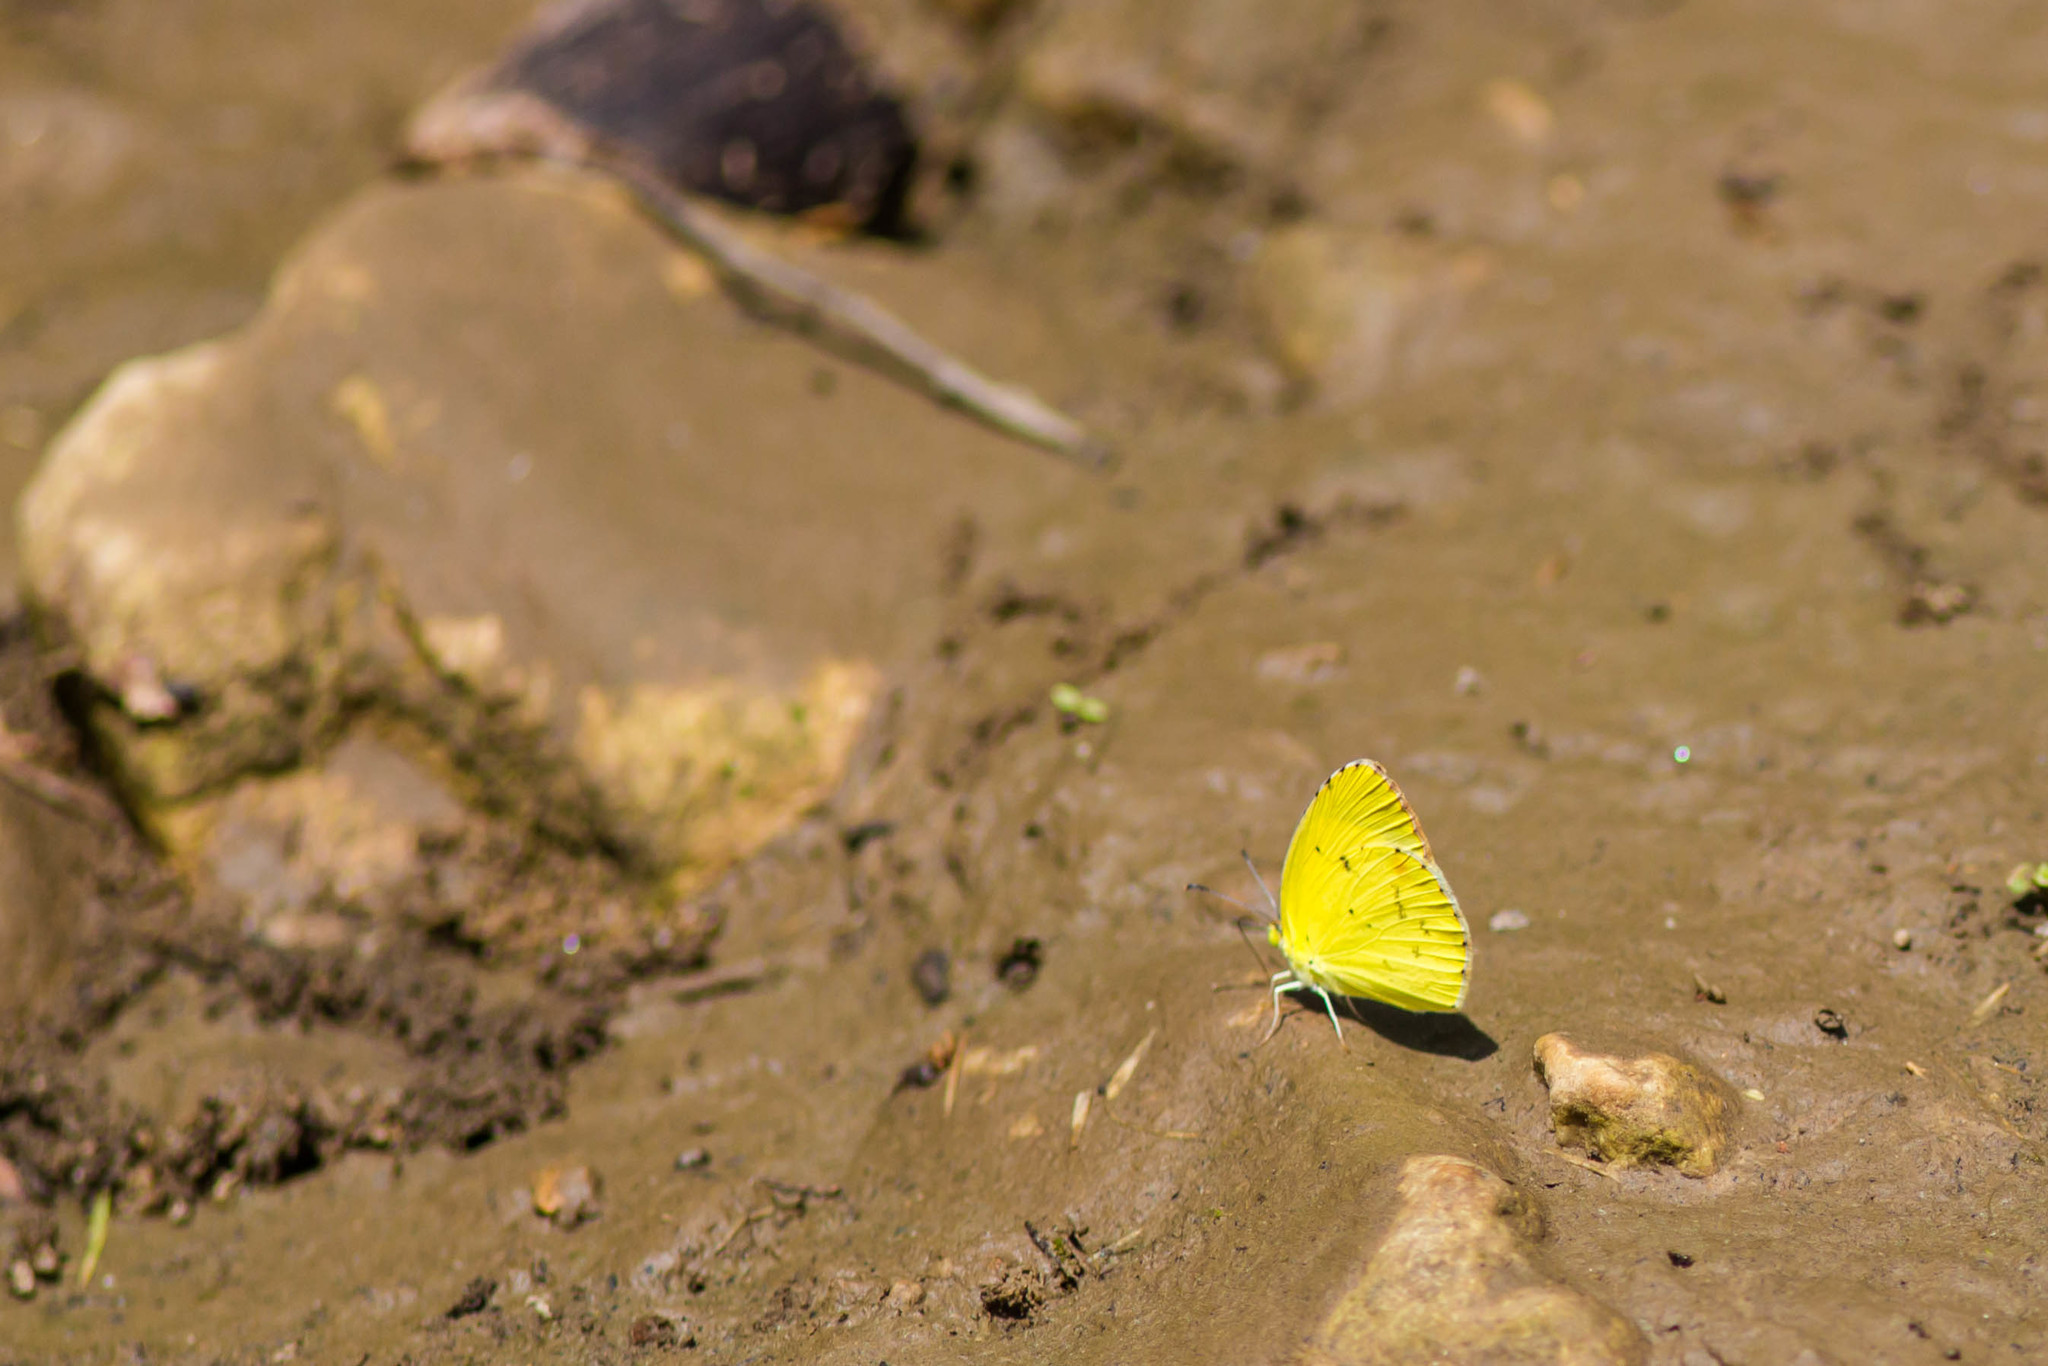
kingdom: Animalia
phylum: Arthropoda
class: Insecta
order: Lepidoptera
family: Pieridae
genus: Pyrisitia
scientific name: Pyrisitia lisa
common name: Little yellow
